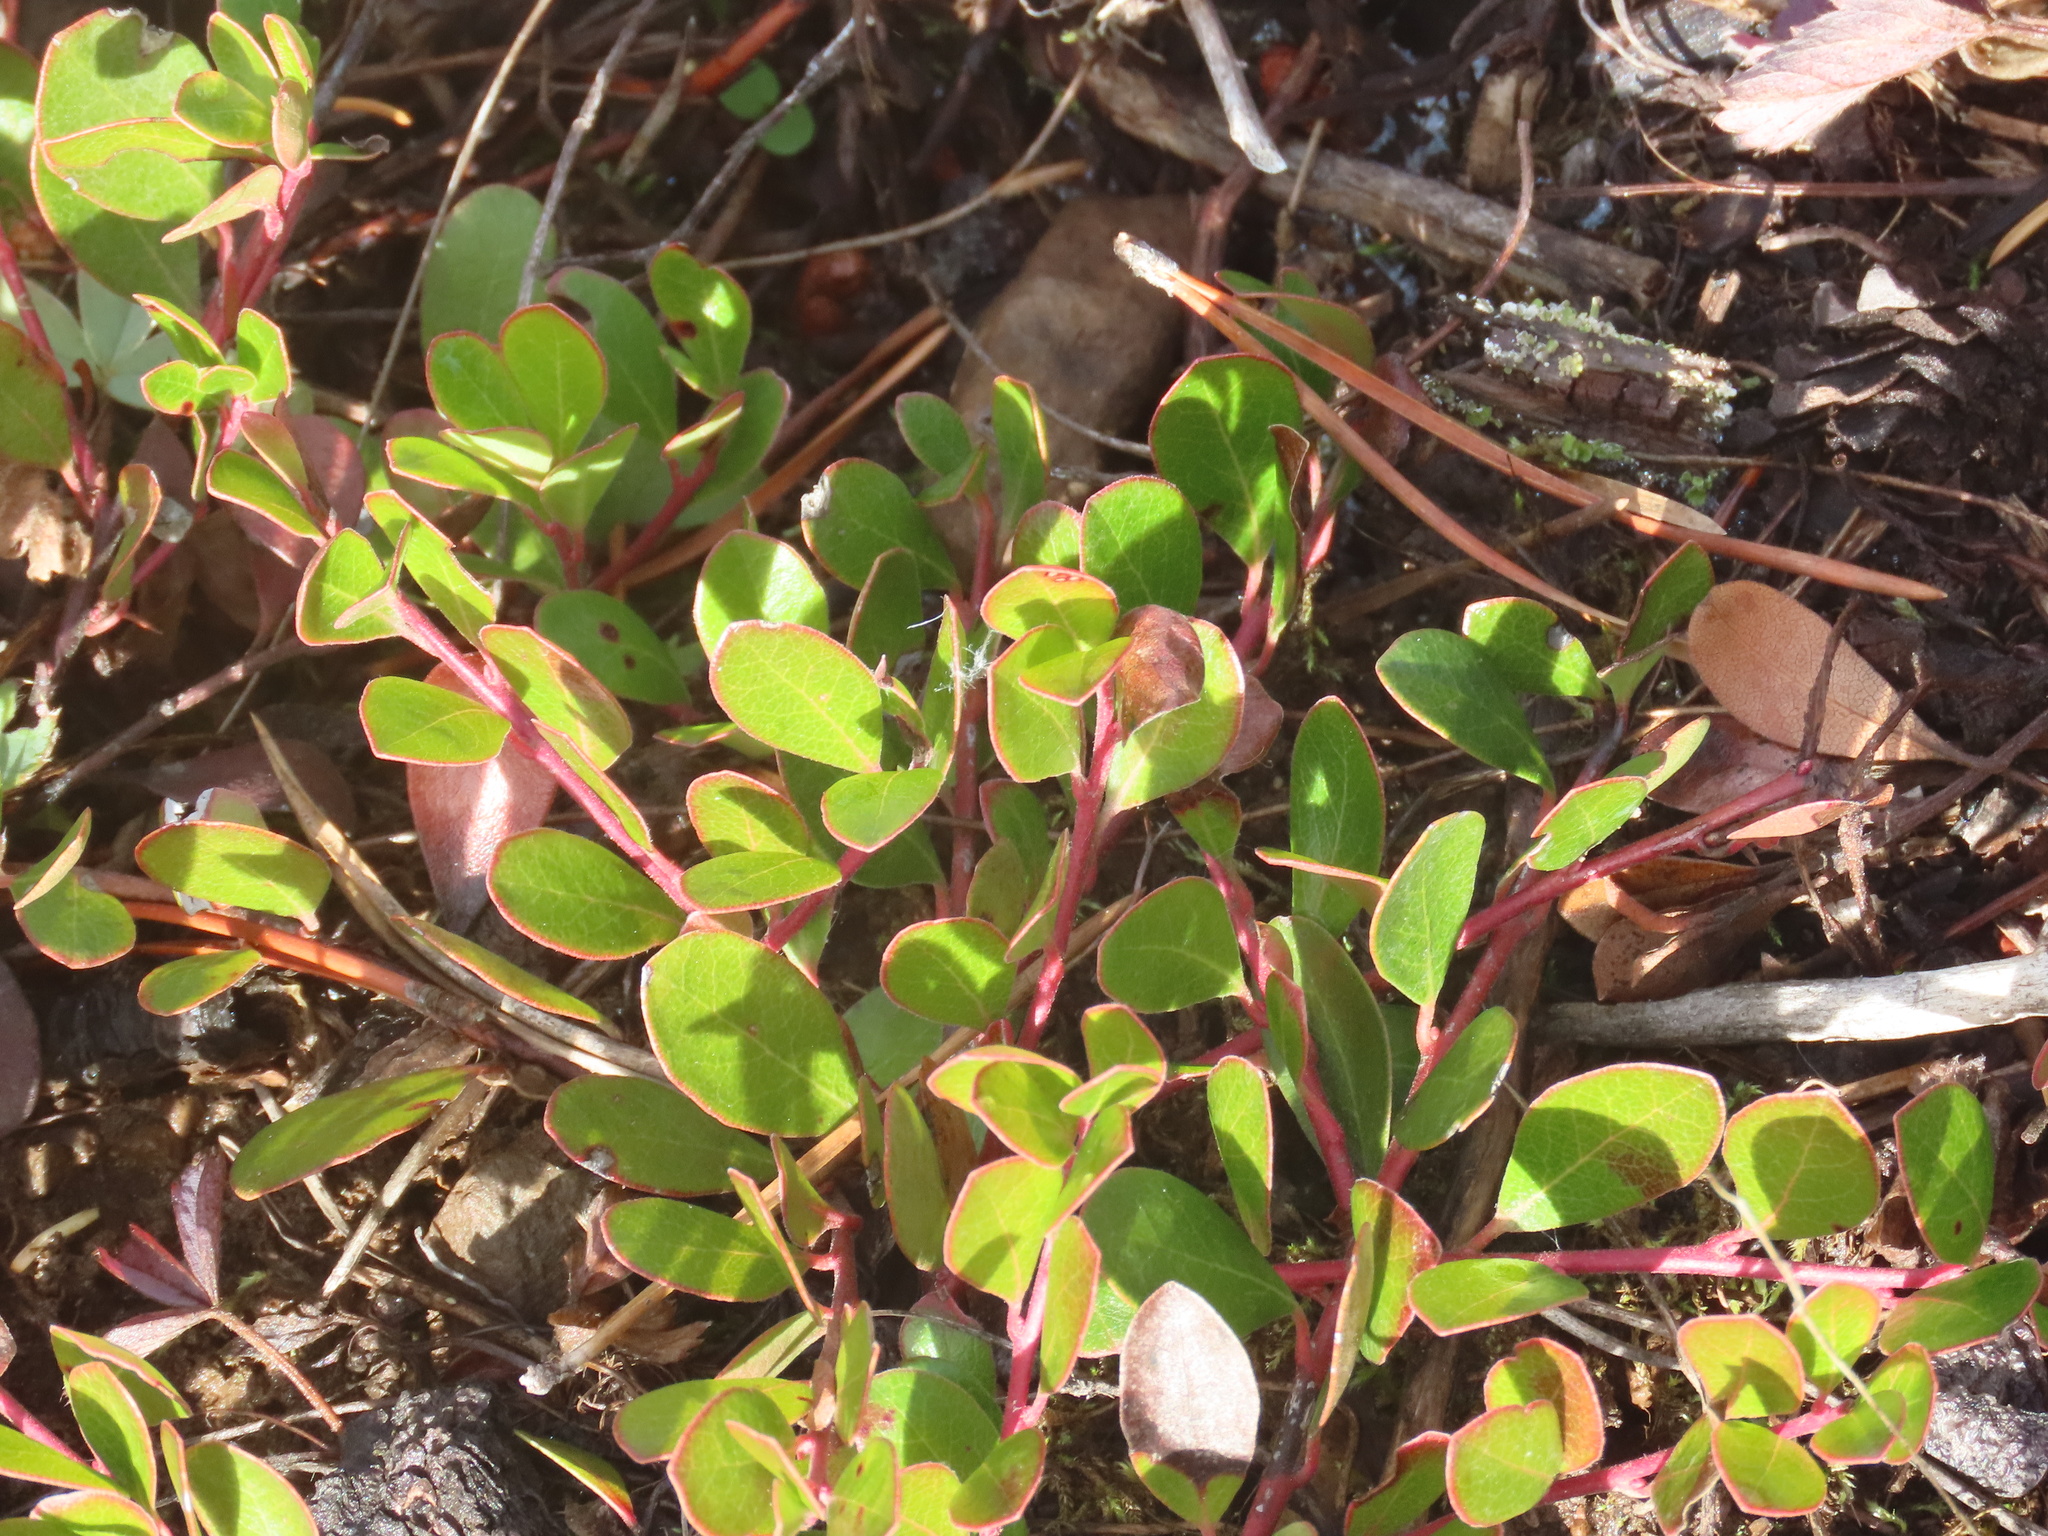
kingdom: Plantae
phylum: Tracheophyta
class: Magnoliopsida
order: Ericales
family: Ericaceae
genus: Arctostaphylos
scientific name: Arctostaphylos uva-ursi
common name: Bearberry
